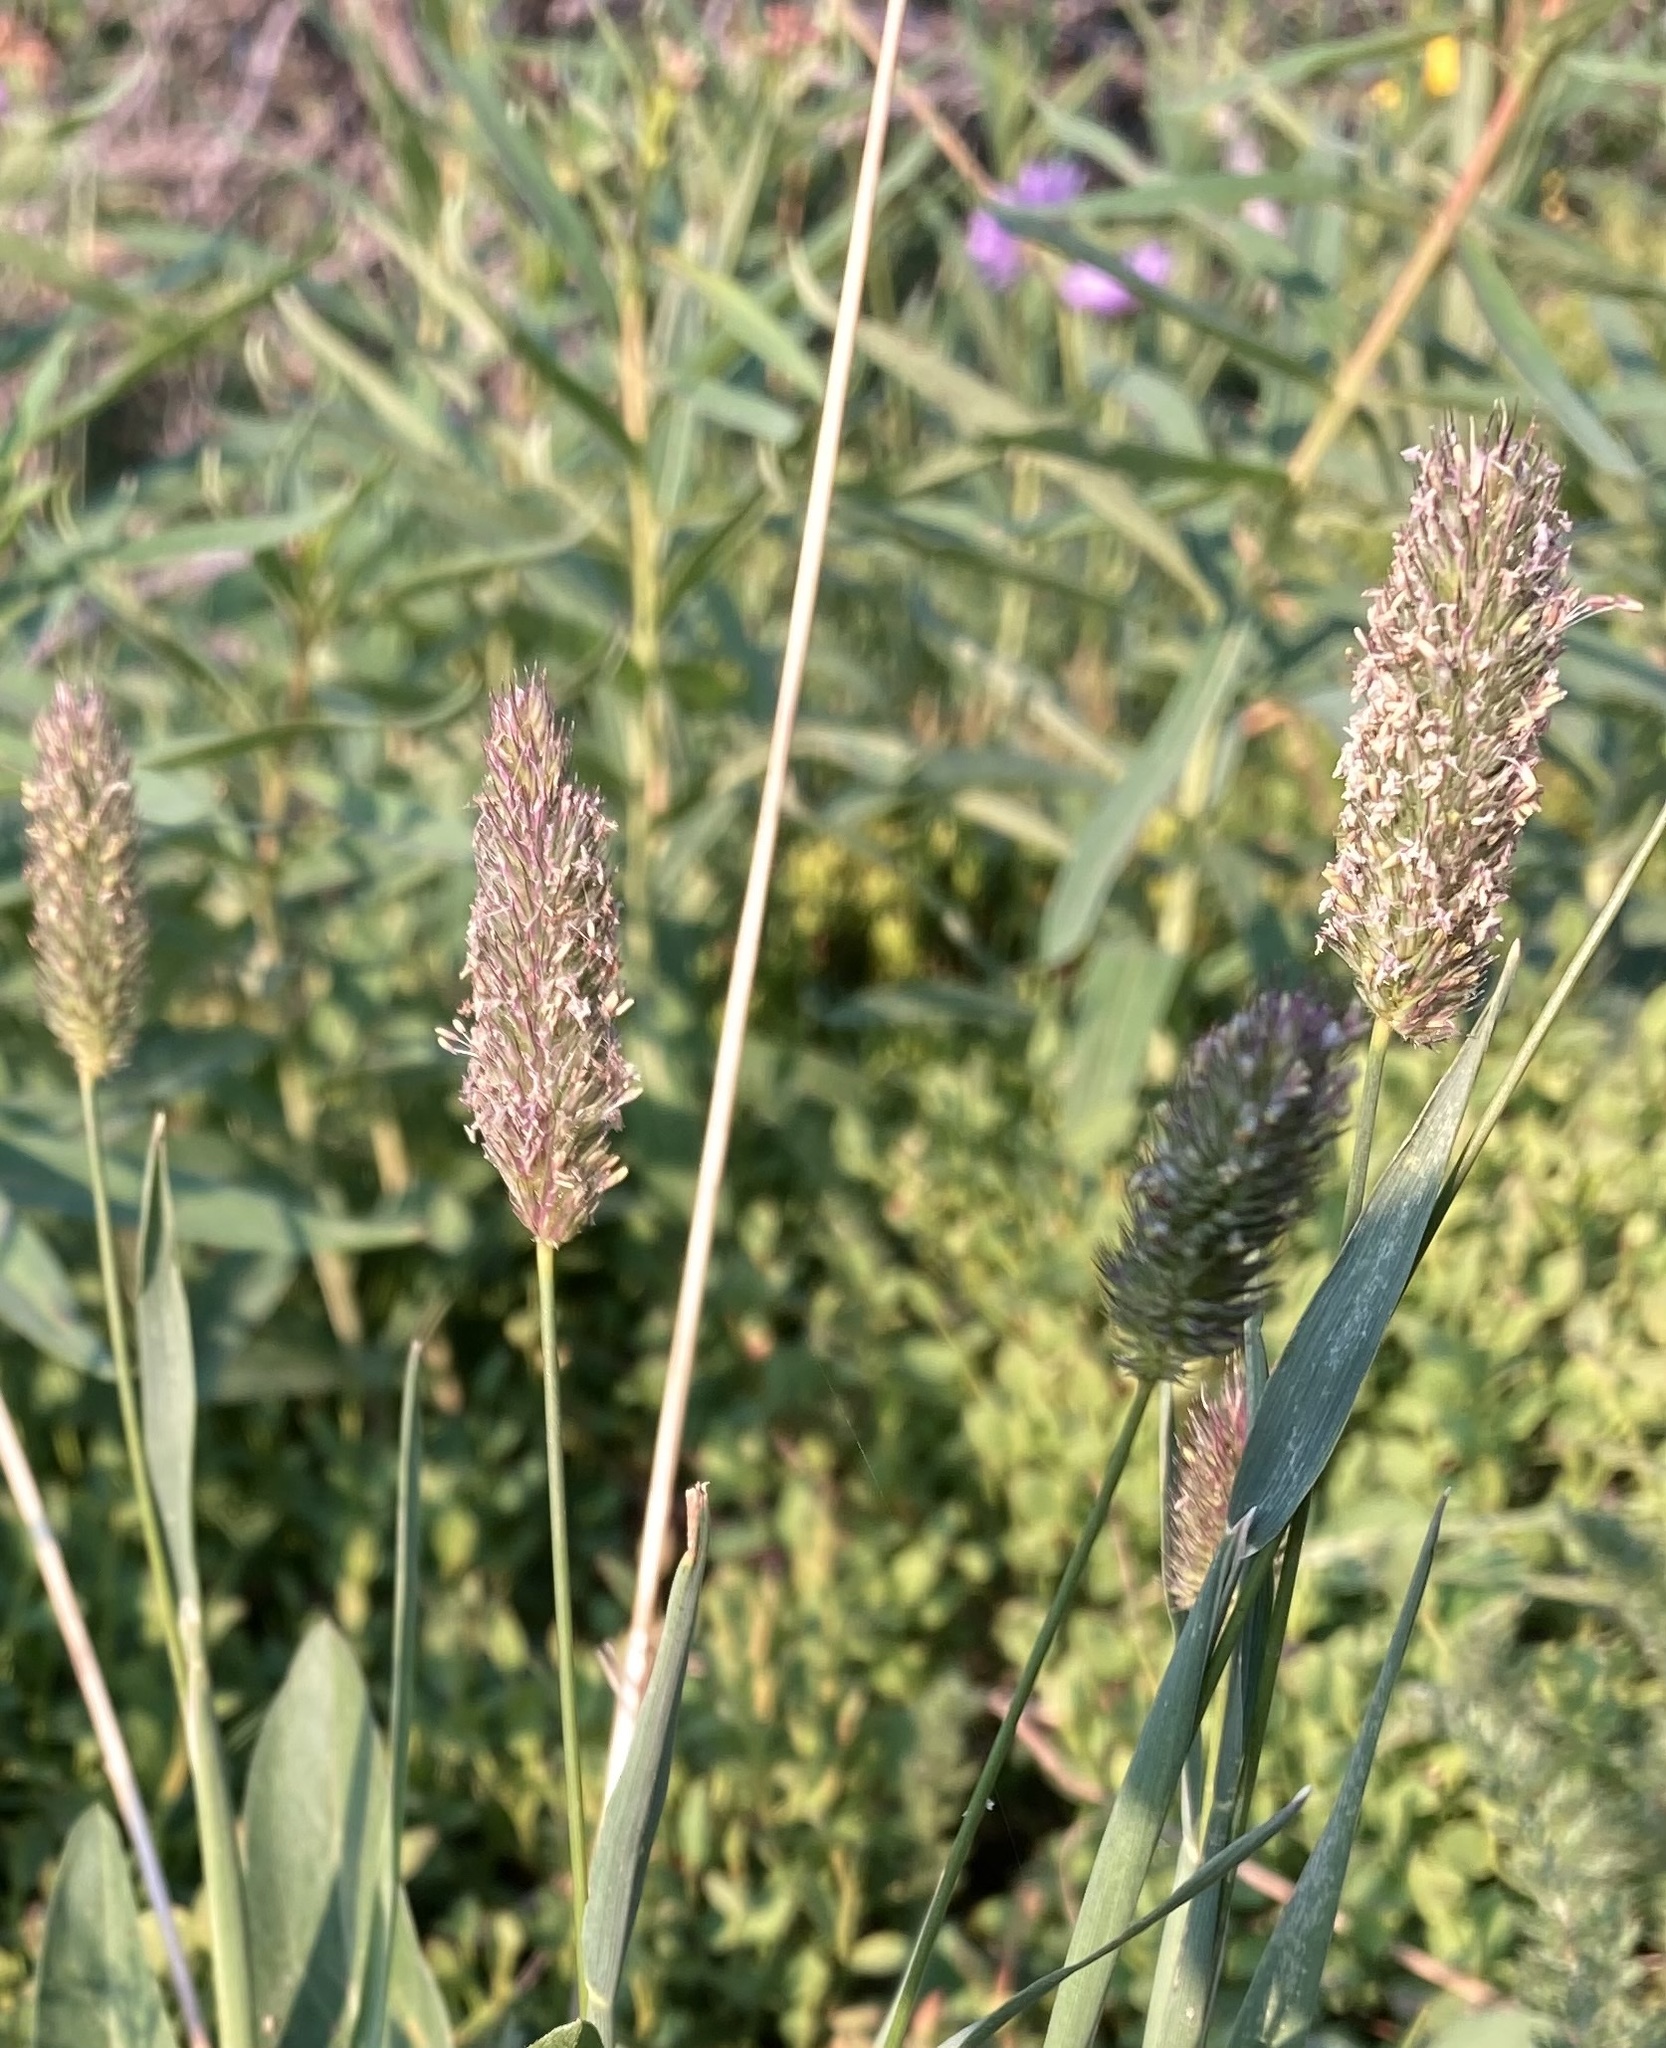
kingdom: Plantae
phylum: Tracheophyta
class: Liliopsida
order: Poales
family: Poaceae
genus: Phleum
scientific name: Phleum alpinum
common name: Alpine cat's-tail
